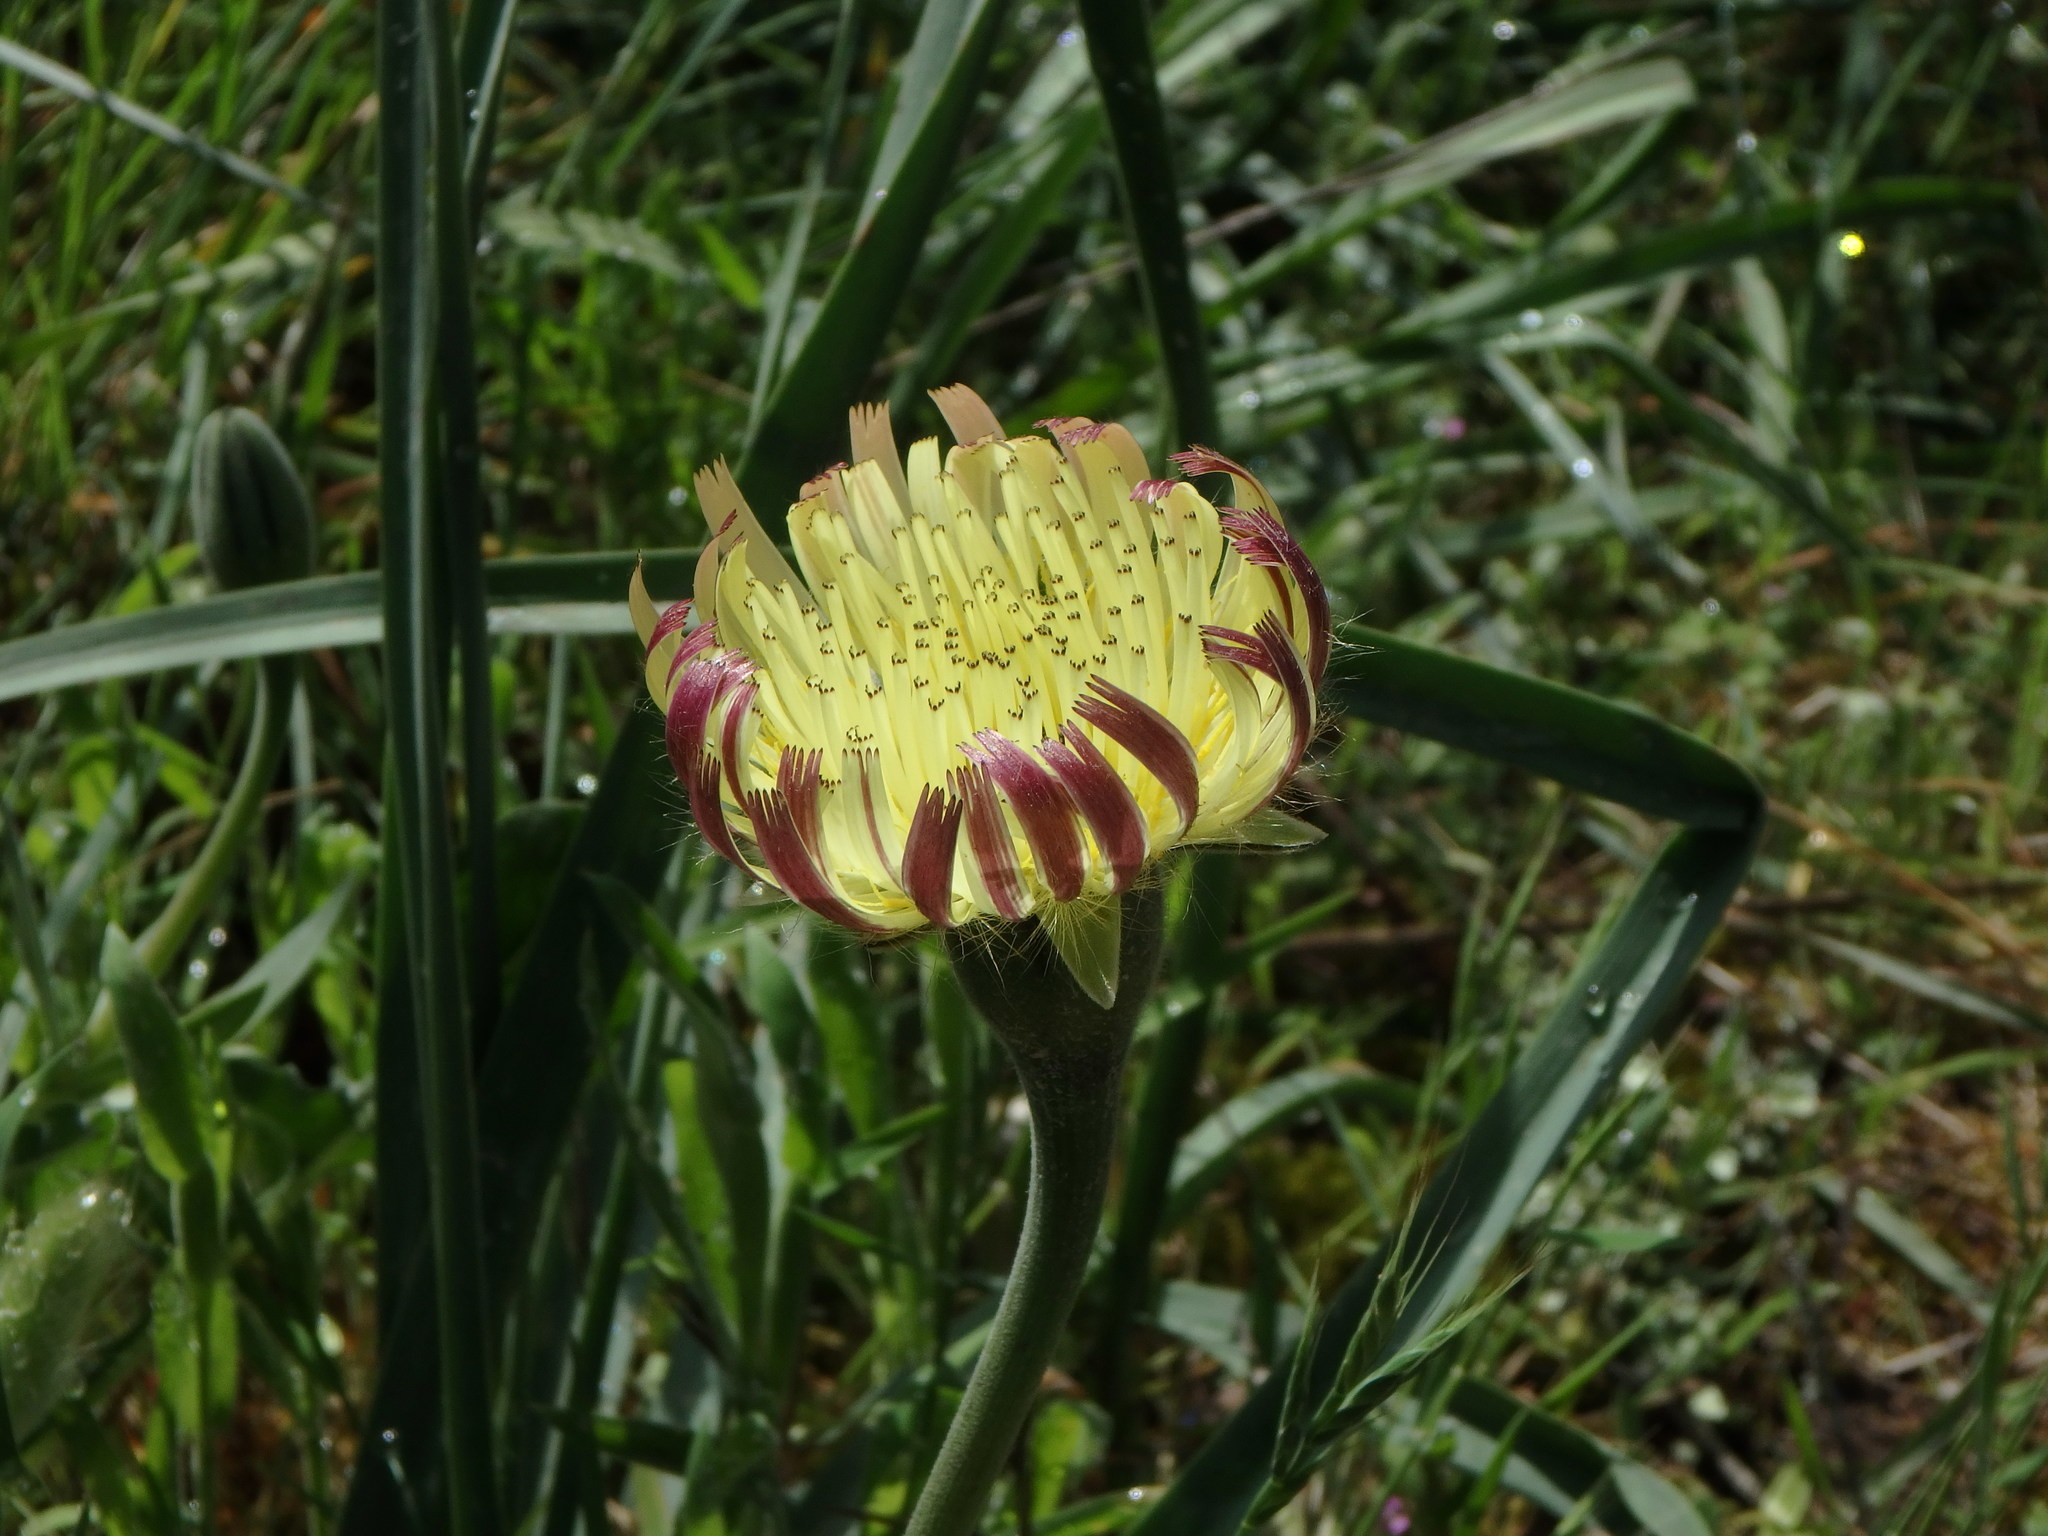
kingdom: Plantae
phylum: Tracheophyta
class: Magnoliopsida
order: Asterales
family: Asteraceae
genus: Urospermum
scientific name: Urospermum dalechampii
